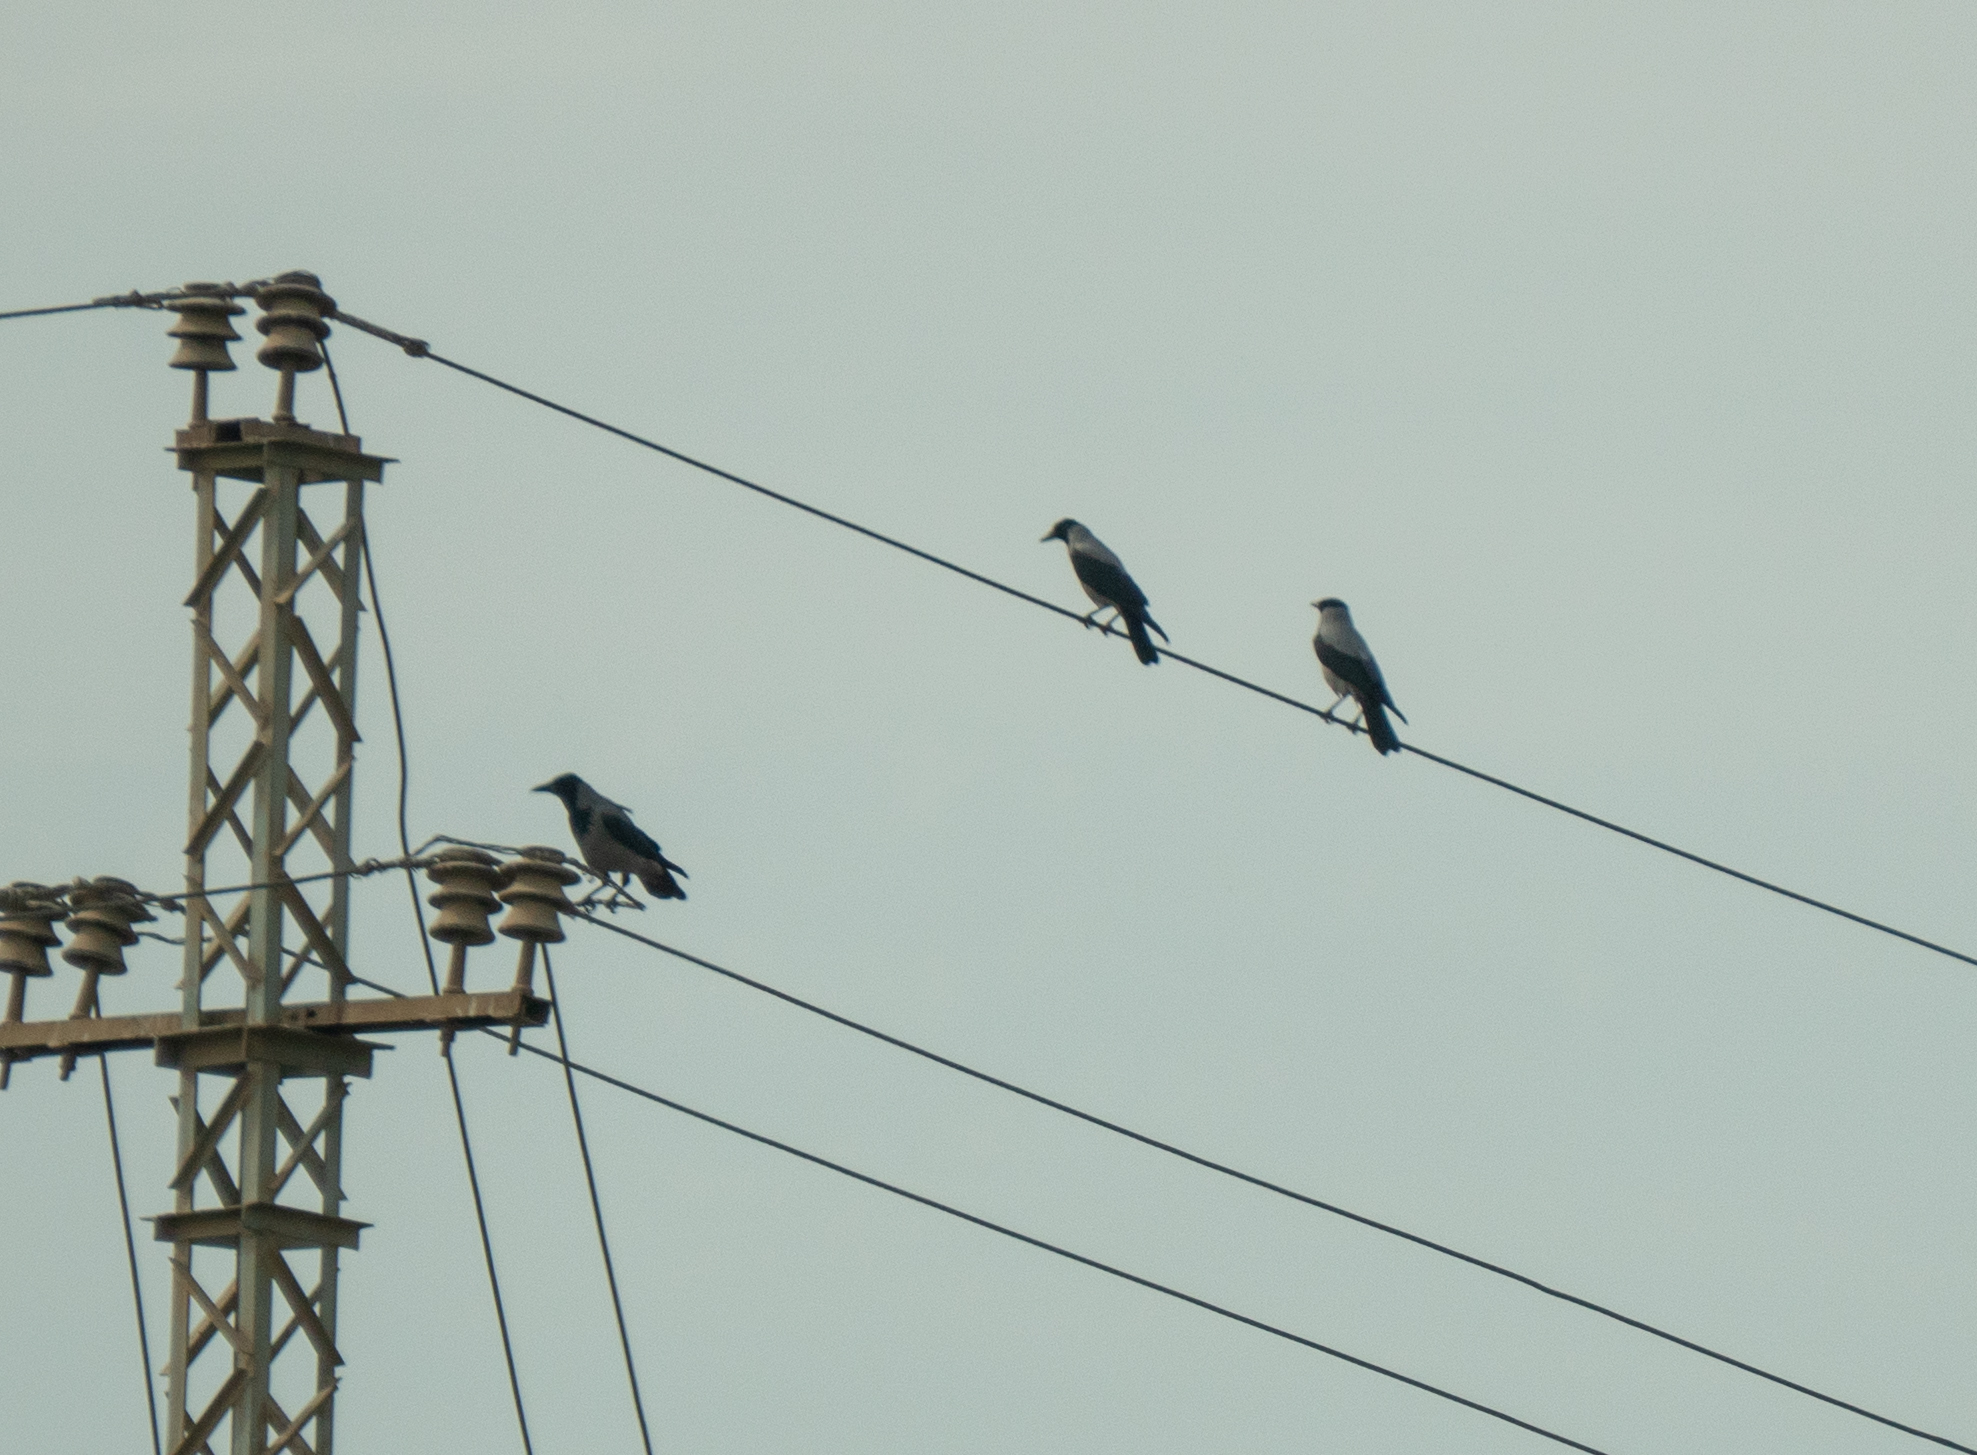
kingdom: Animalia
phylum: Chordata
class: Aves
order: Passeriformes
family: Corvidae
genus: Corvus
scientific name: Corvus cornix
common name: Hooded crow
